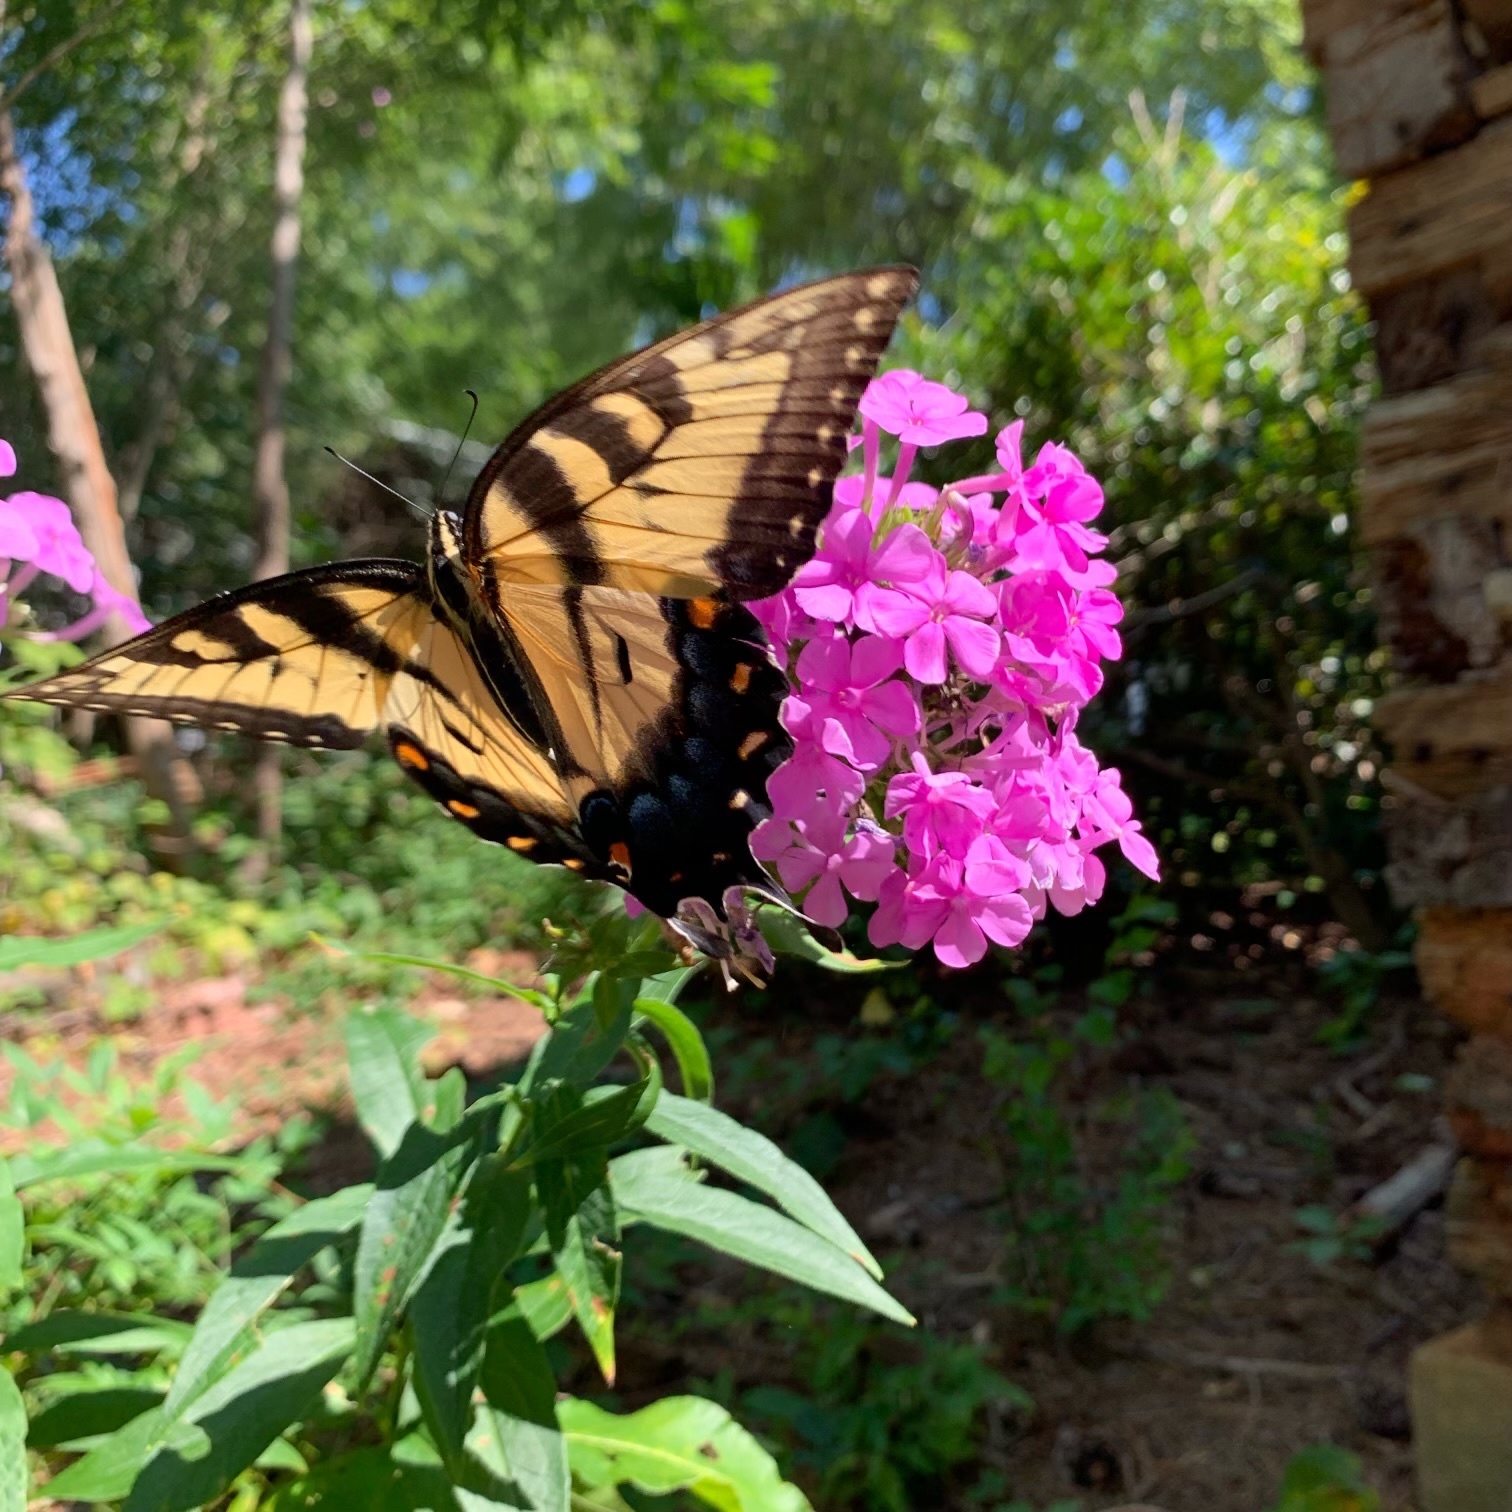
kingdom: Animalia
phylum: Arthropoda
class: Insecta
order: Lepidoptera
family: Papilionidae
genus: Papilio
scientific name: Papilio glaucus
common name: Tiger swallowtail
